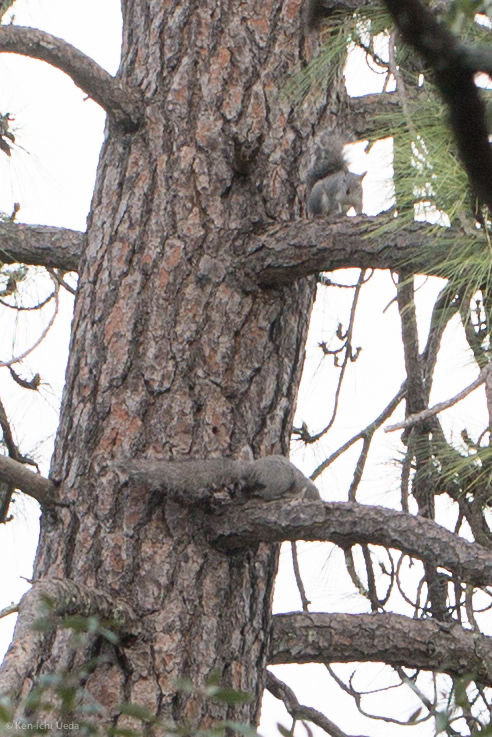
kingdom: Animalia
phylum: Chordata
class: Mammalia
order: Rodentia
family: Sciuridae
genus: Sciurus
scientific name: Sciurus griseus
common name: Western gray squirrel
